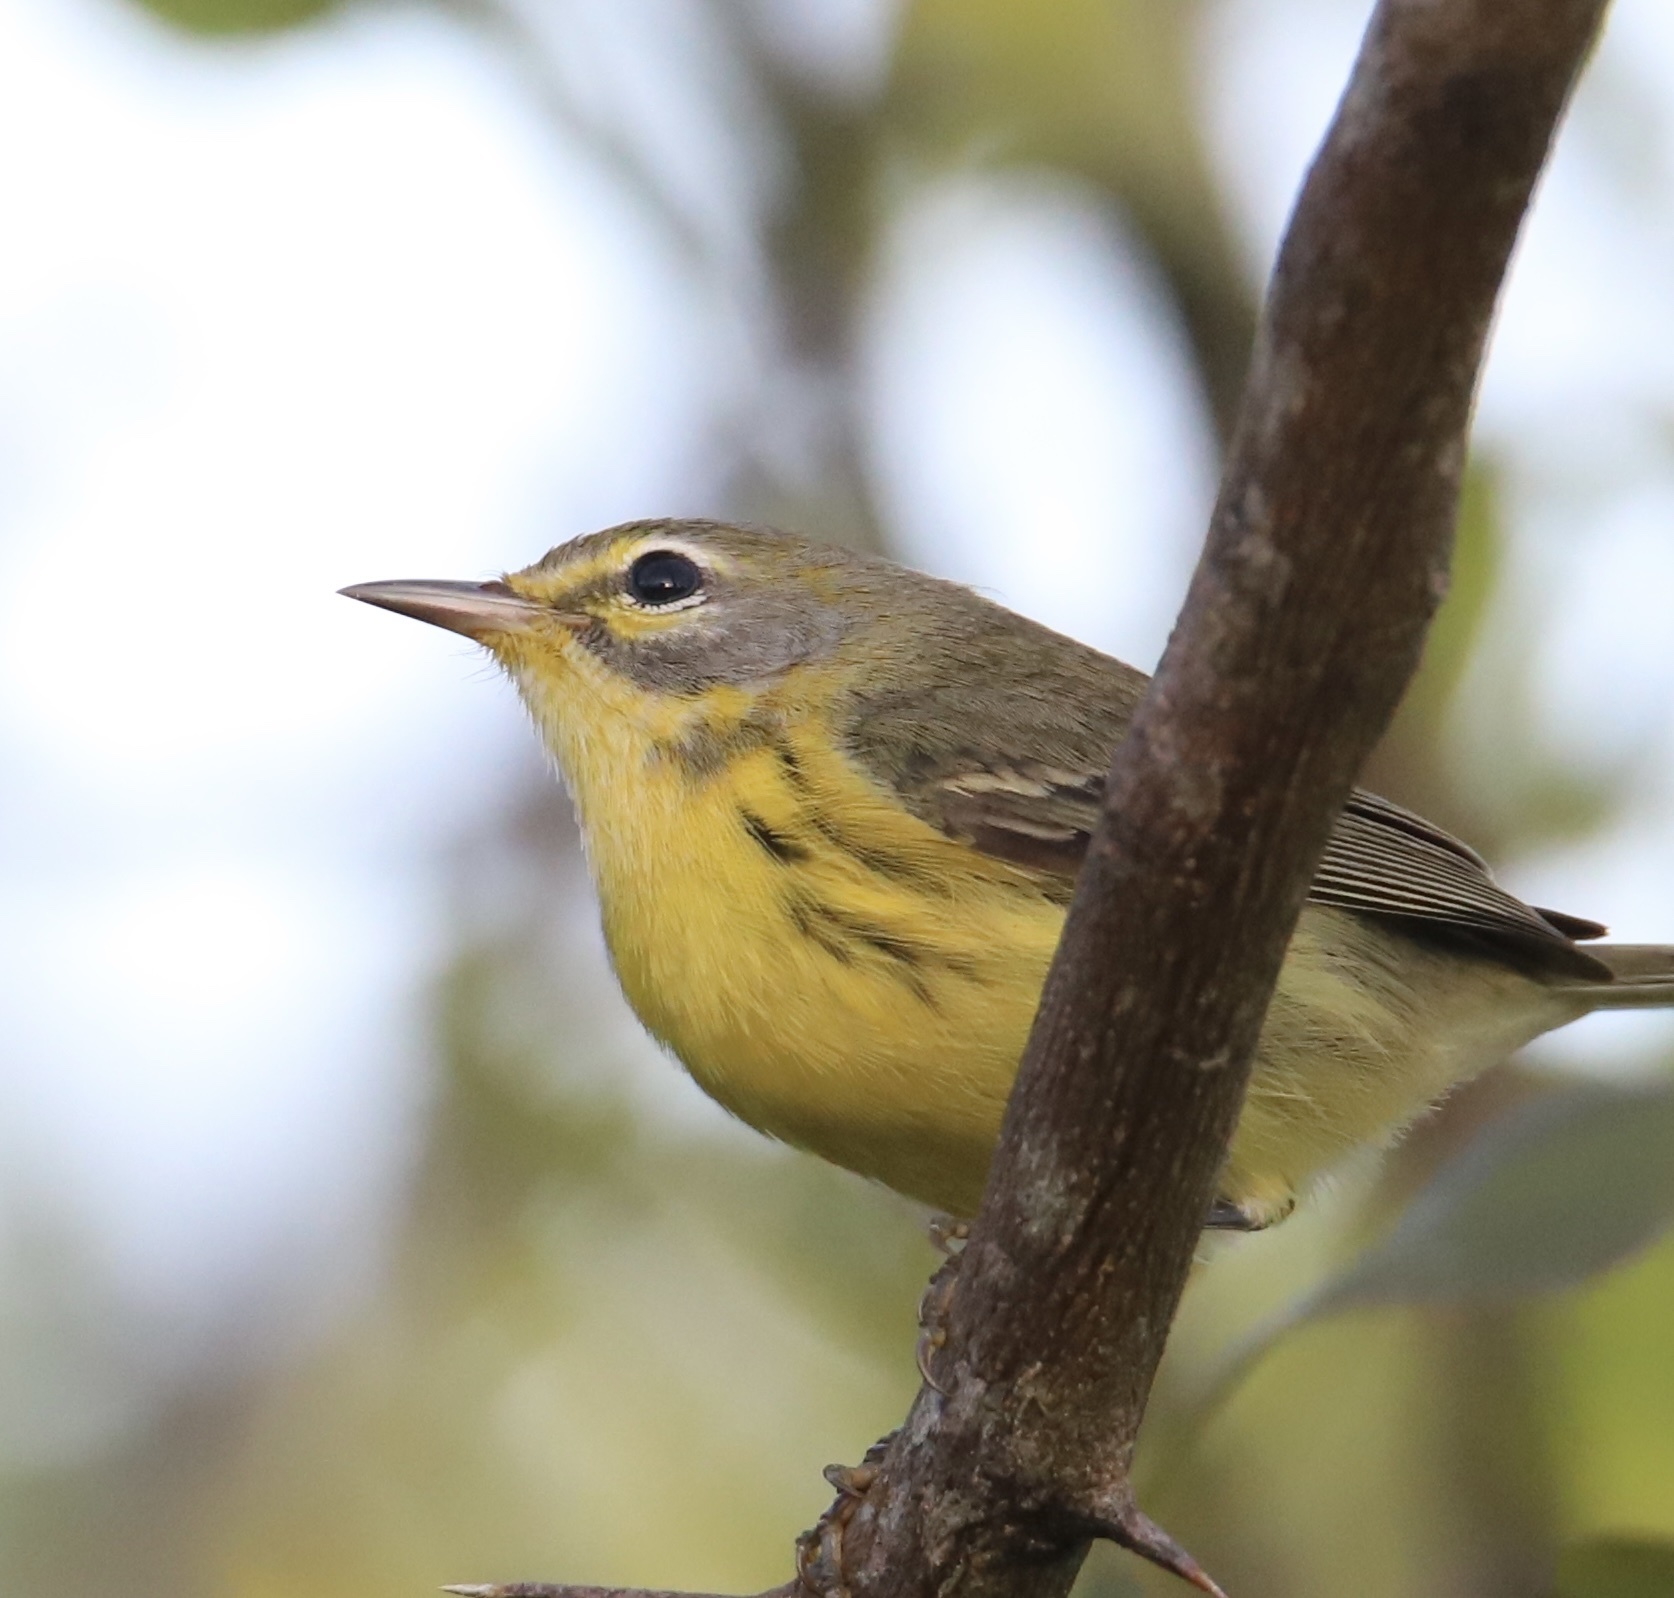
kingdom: Animalia
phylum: Chordata
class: Aves
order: Passeriformes
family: Parulidae
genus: Setophaga
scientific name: Setophaga discolor
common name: Prairie warbler
